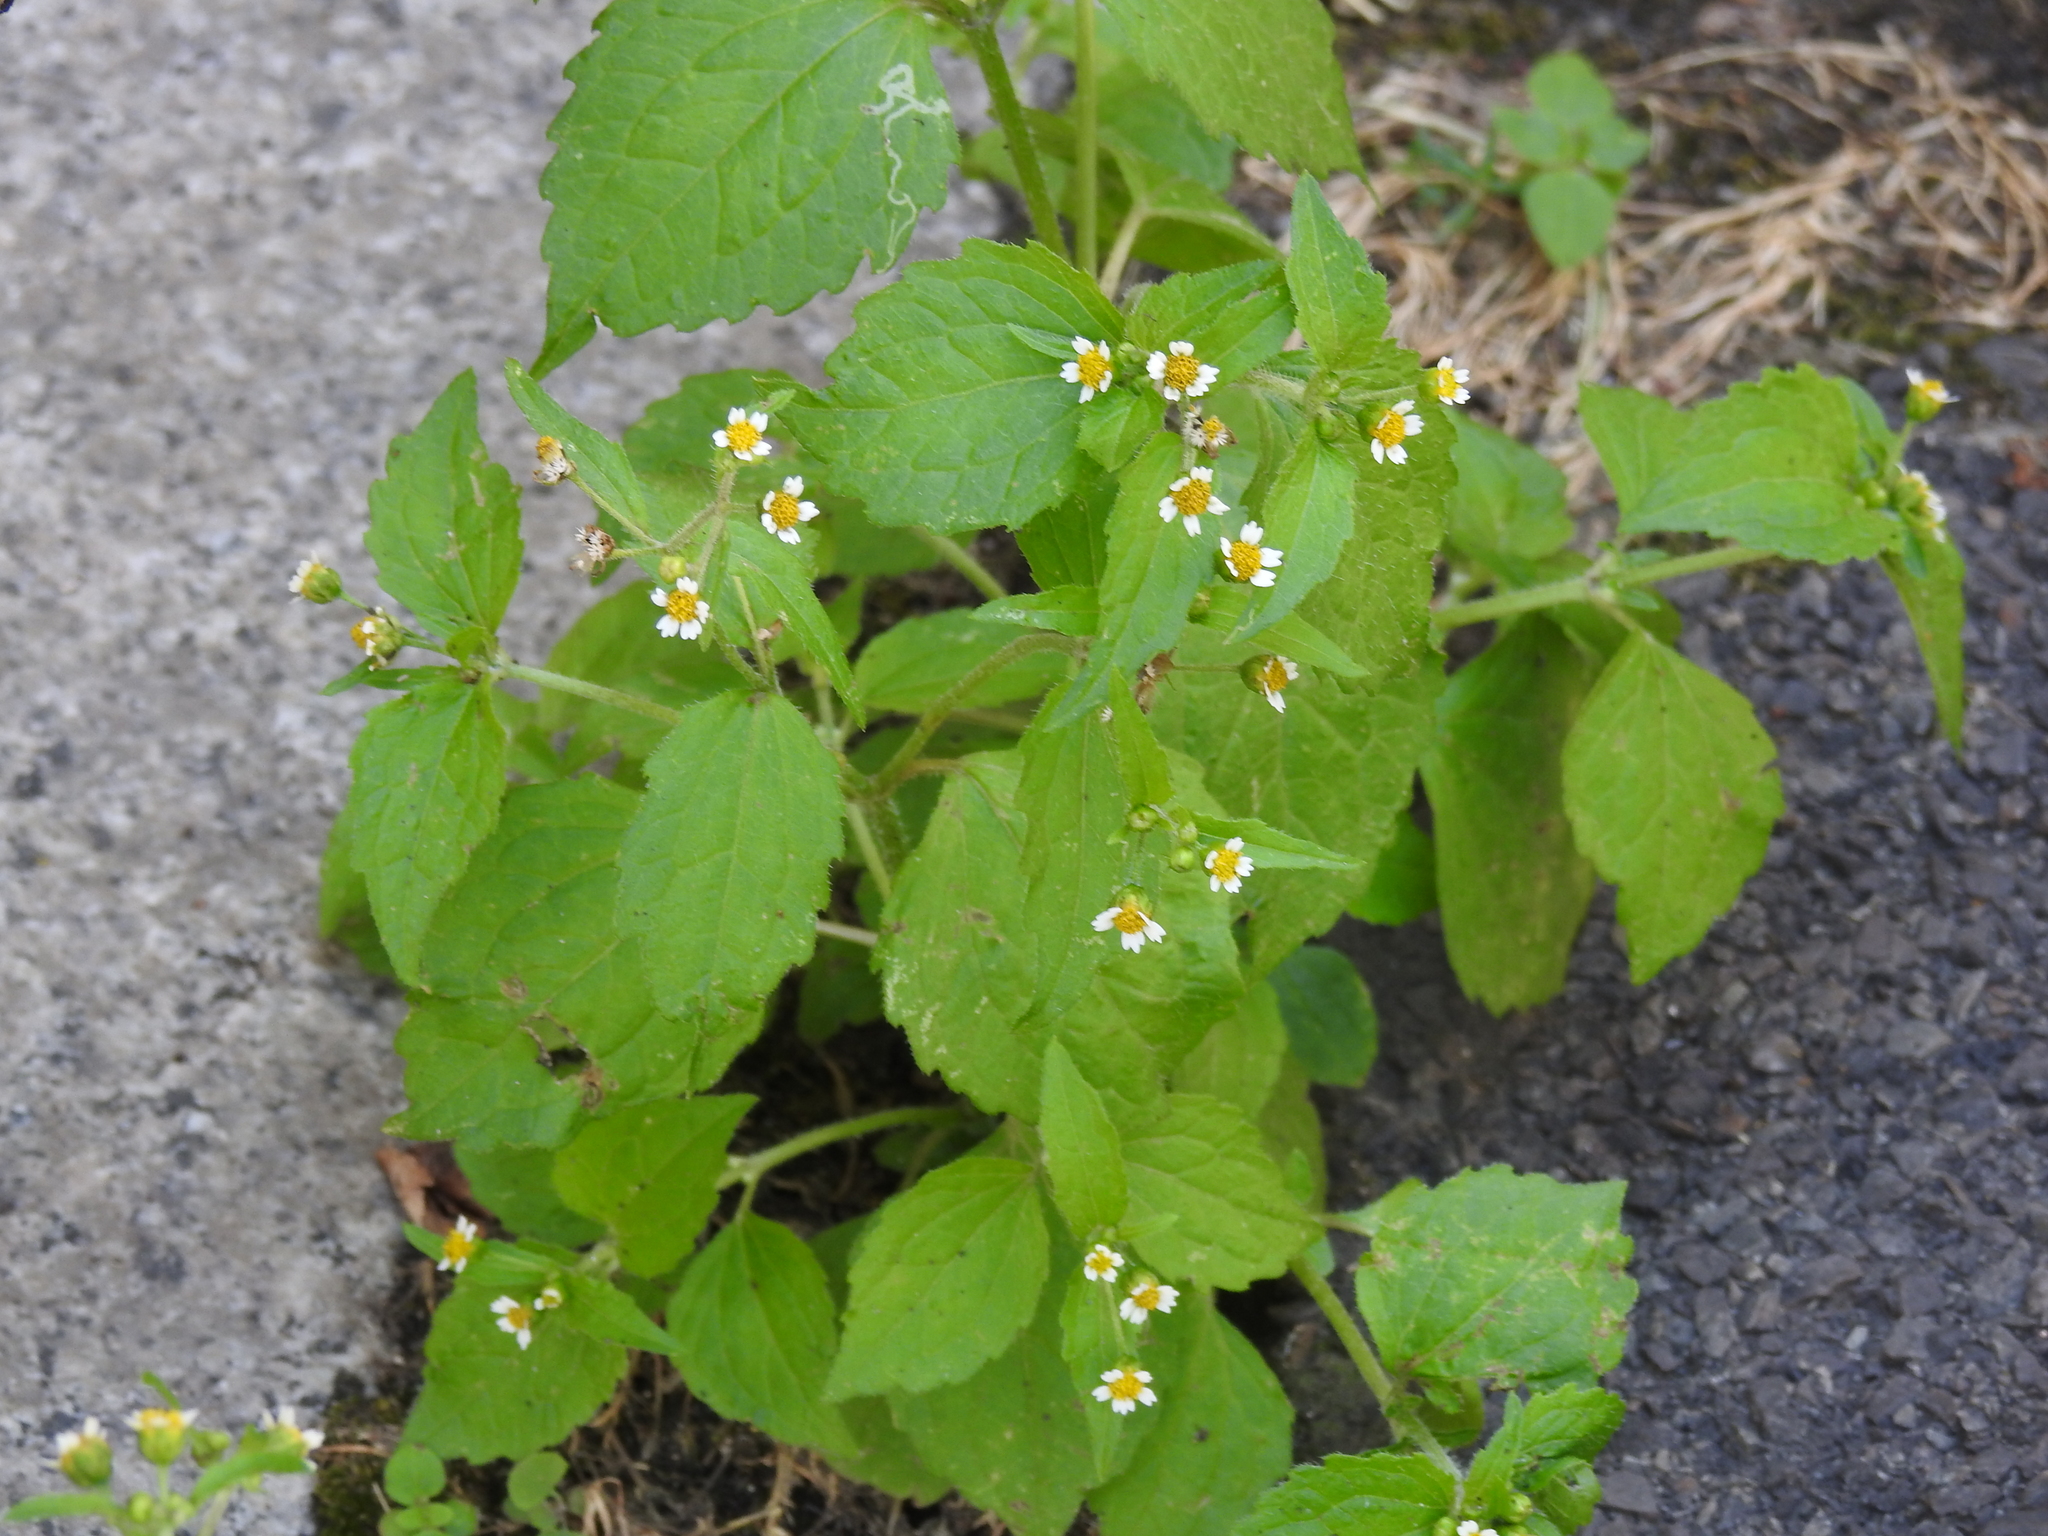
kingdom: Plantae
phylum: Tracheophyta
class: Magnoliopsida
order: Asterales
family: Asteraceae
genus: Galinsoga
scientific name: Galinsoga quadriradiata
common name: Shaggy soldier
